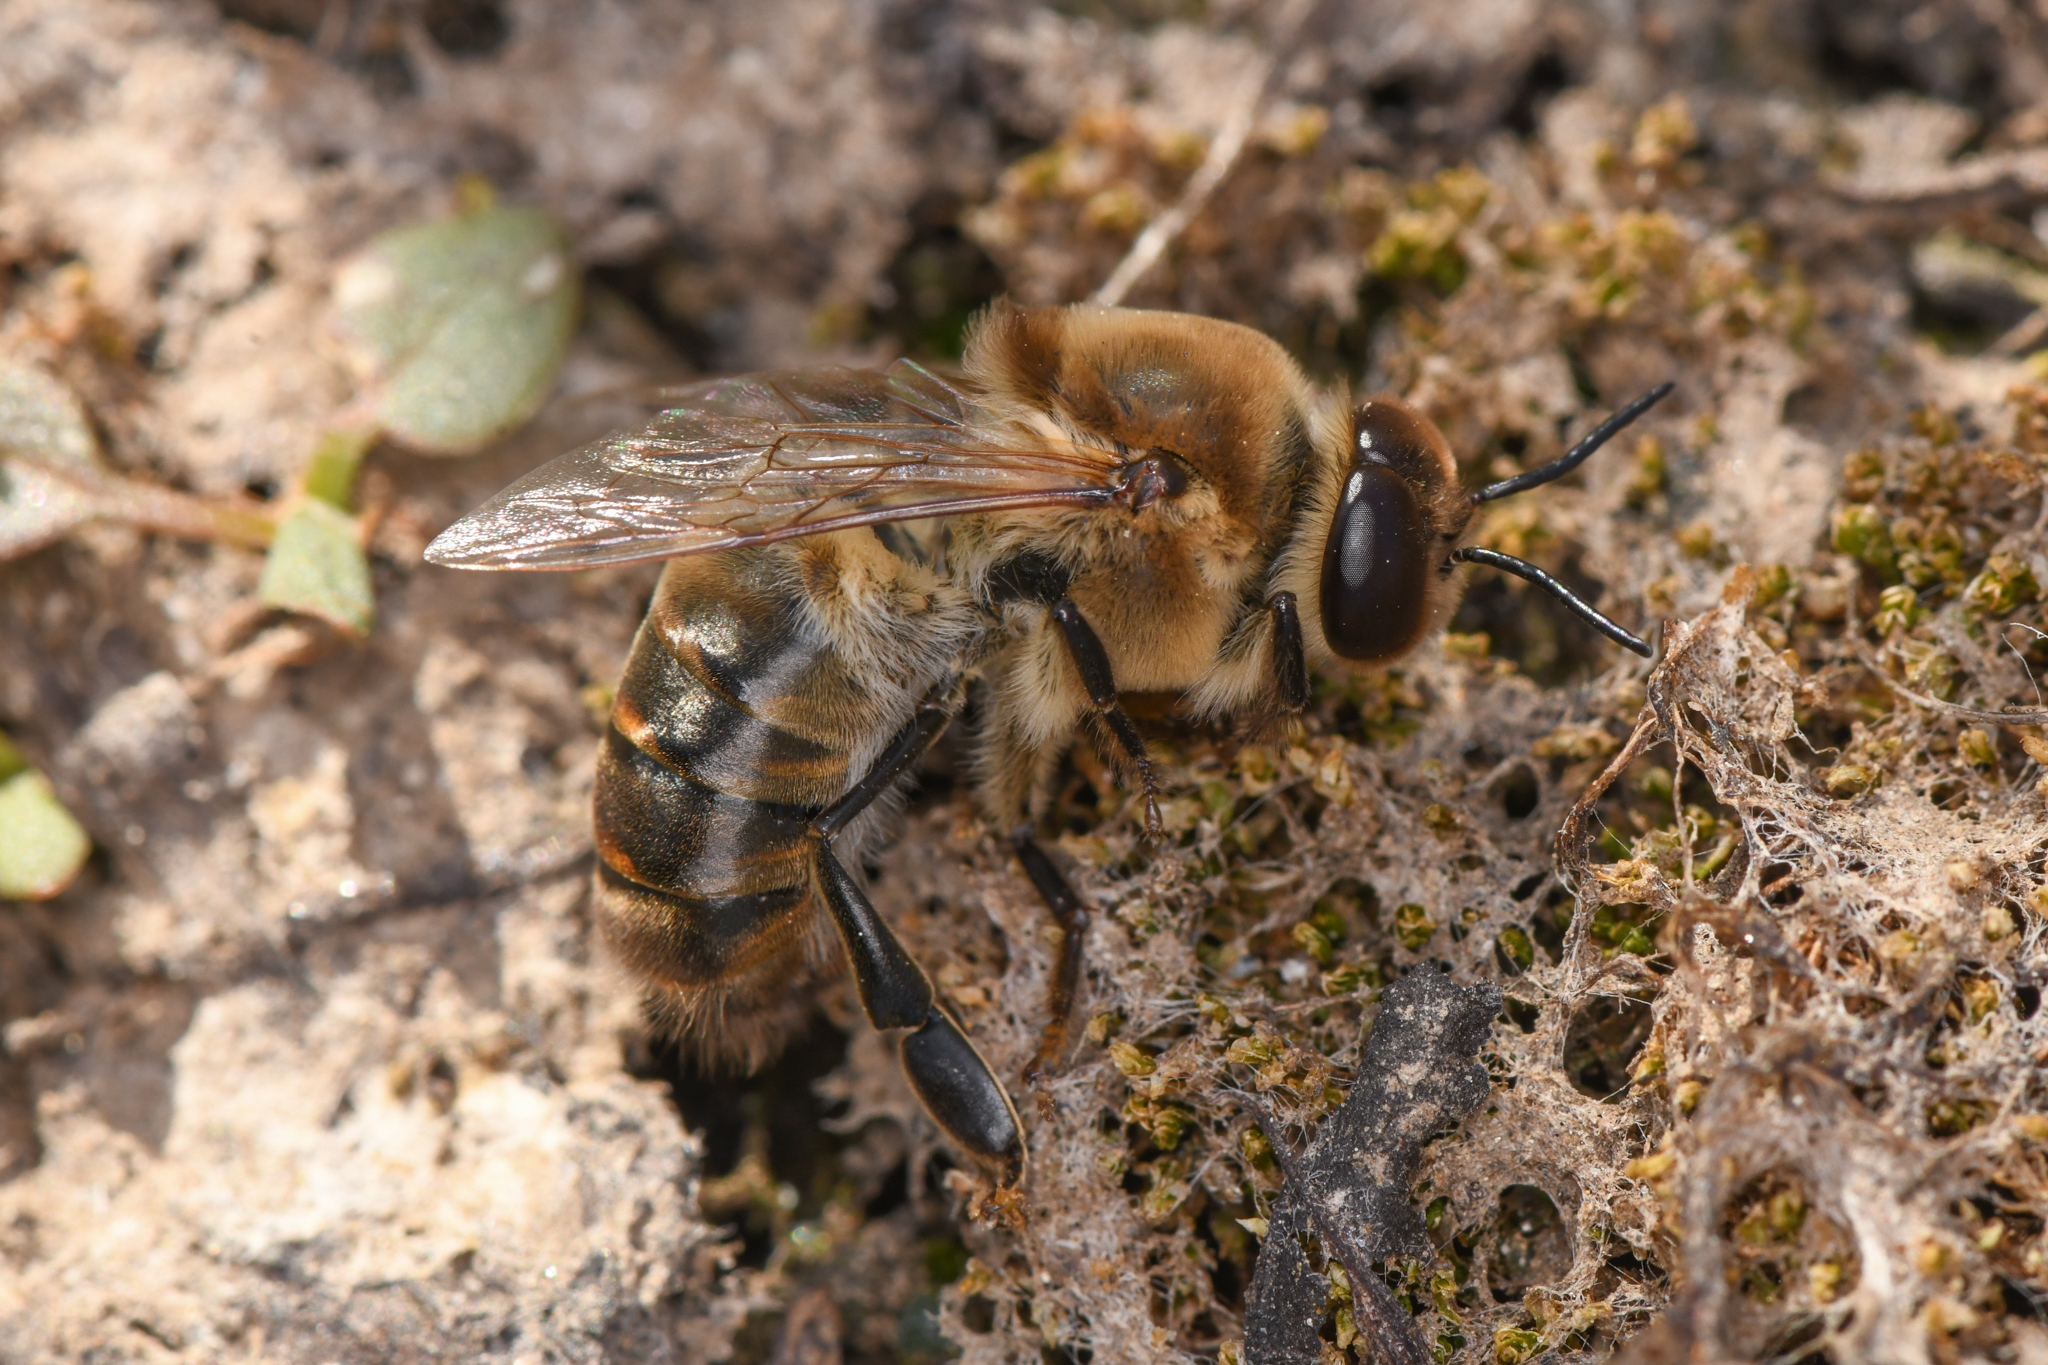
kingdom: Animalia
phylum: Arthropoda
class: Insecta
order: Hymenoptera
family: Apidae
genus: Apis
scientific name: Apis mellifera
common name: Honey bee
